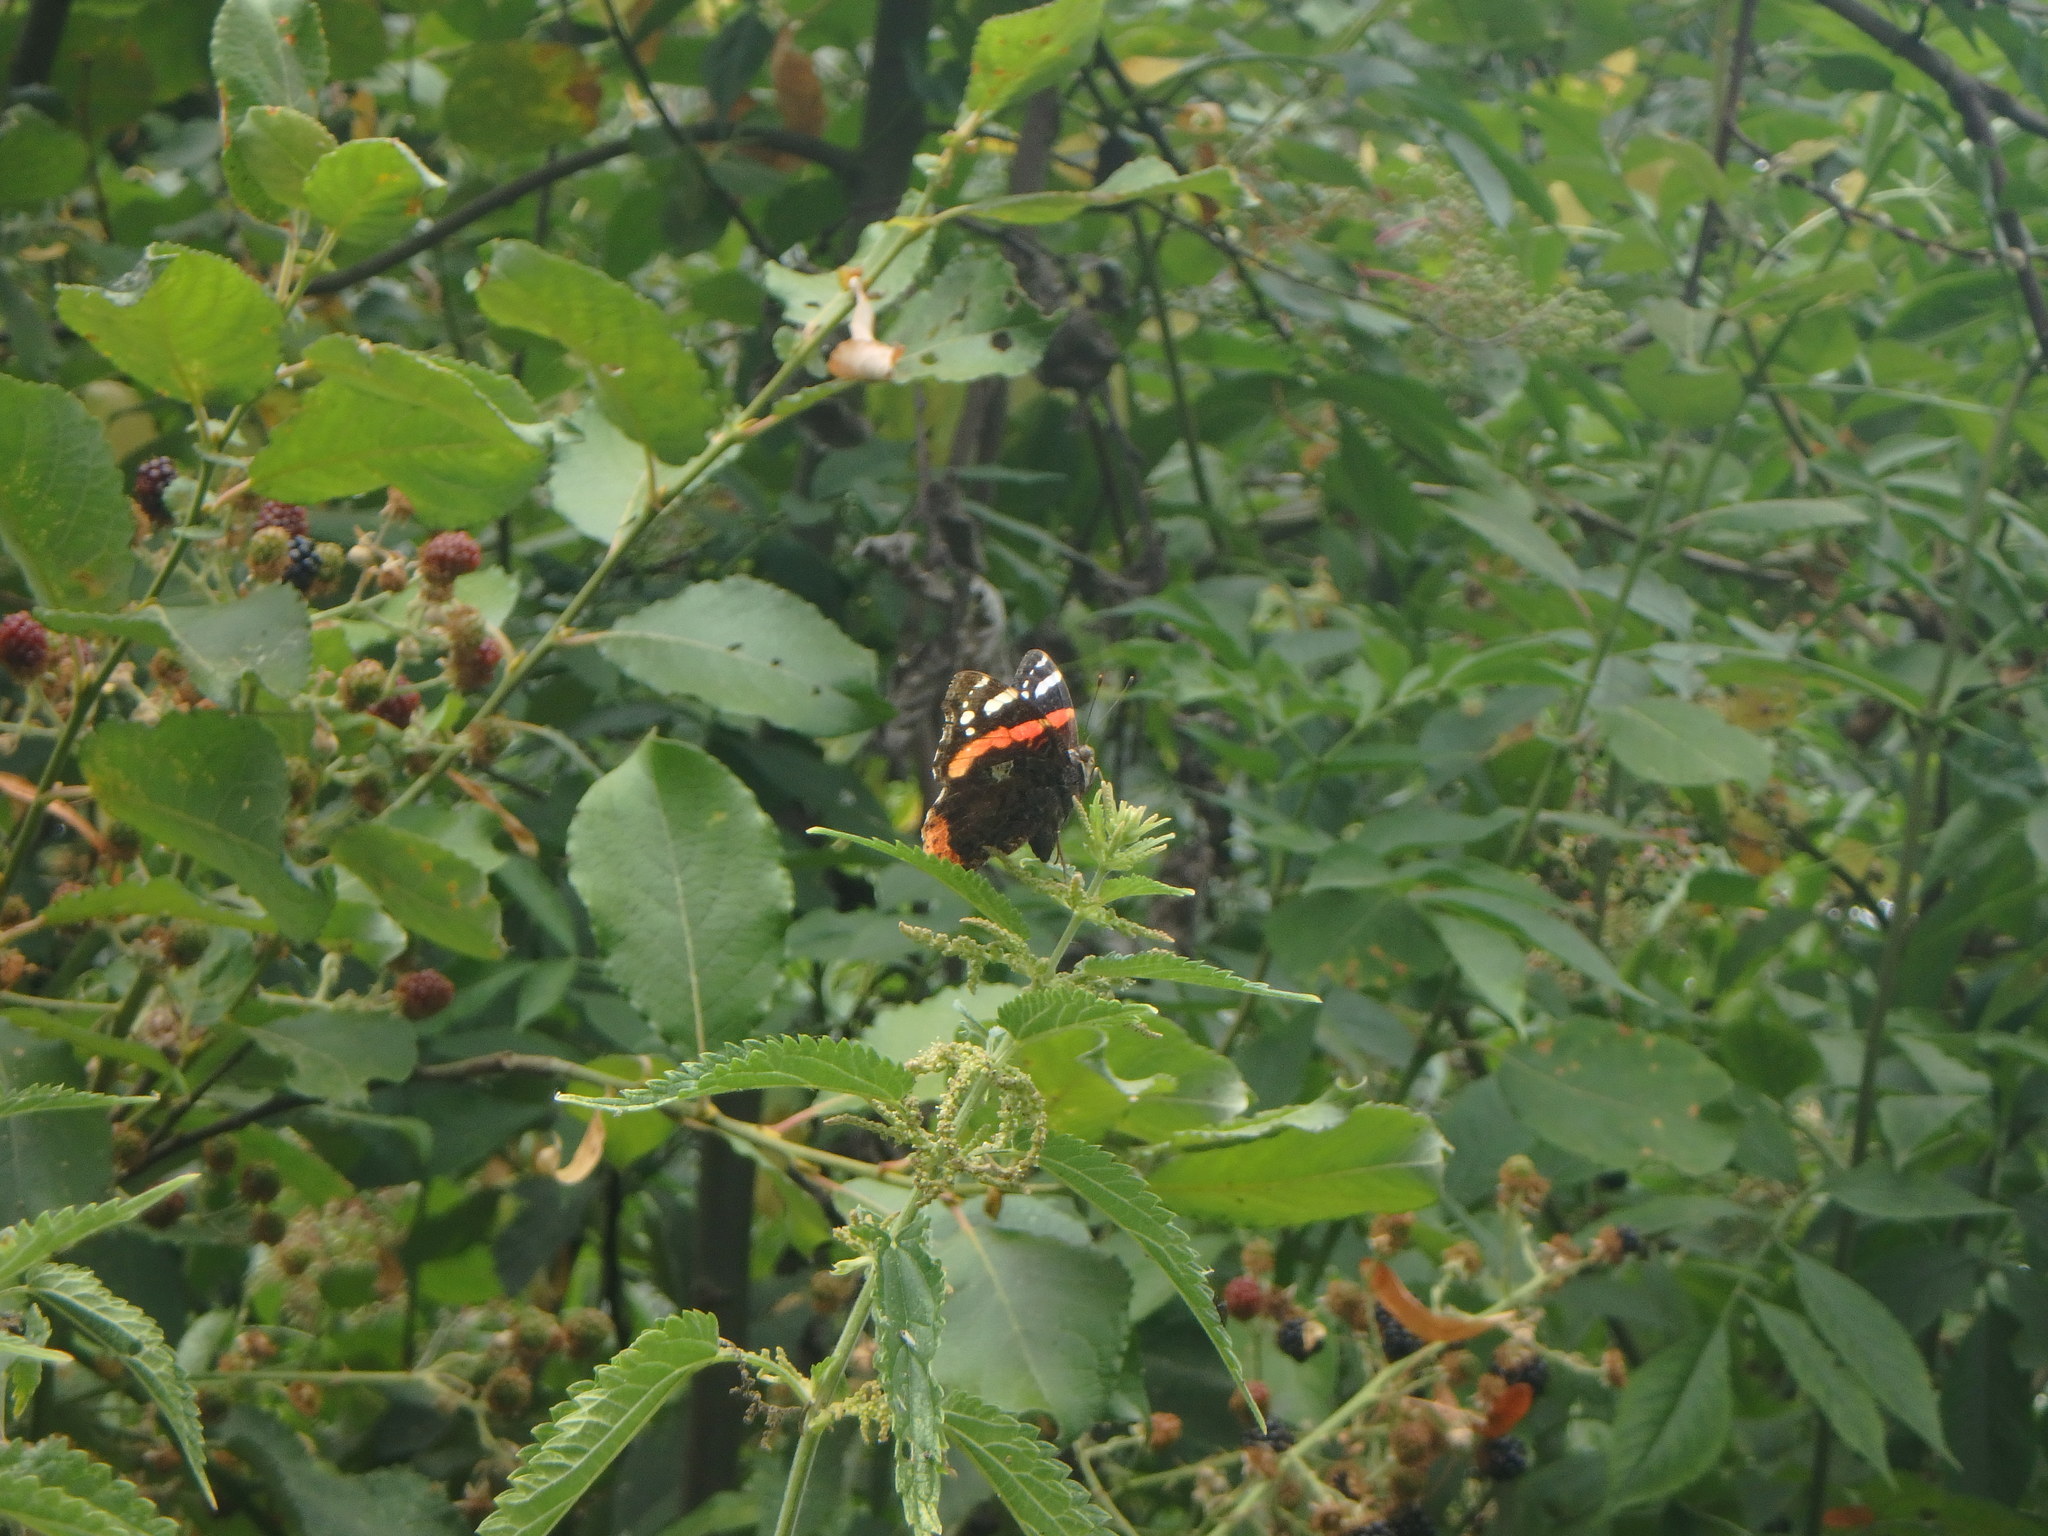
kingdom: Animalia
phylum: Arthropoda
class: Insecta
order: Lepidoptera
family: Nymphalidae
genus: Vanessa
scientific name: Vanessa atalanta
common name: Red admiral
